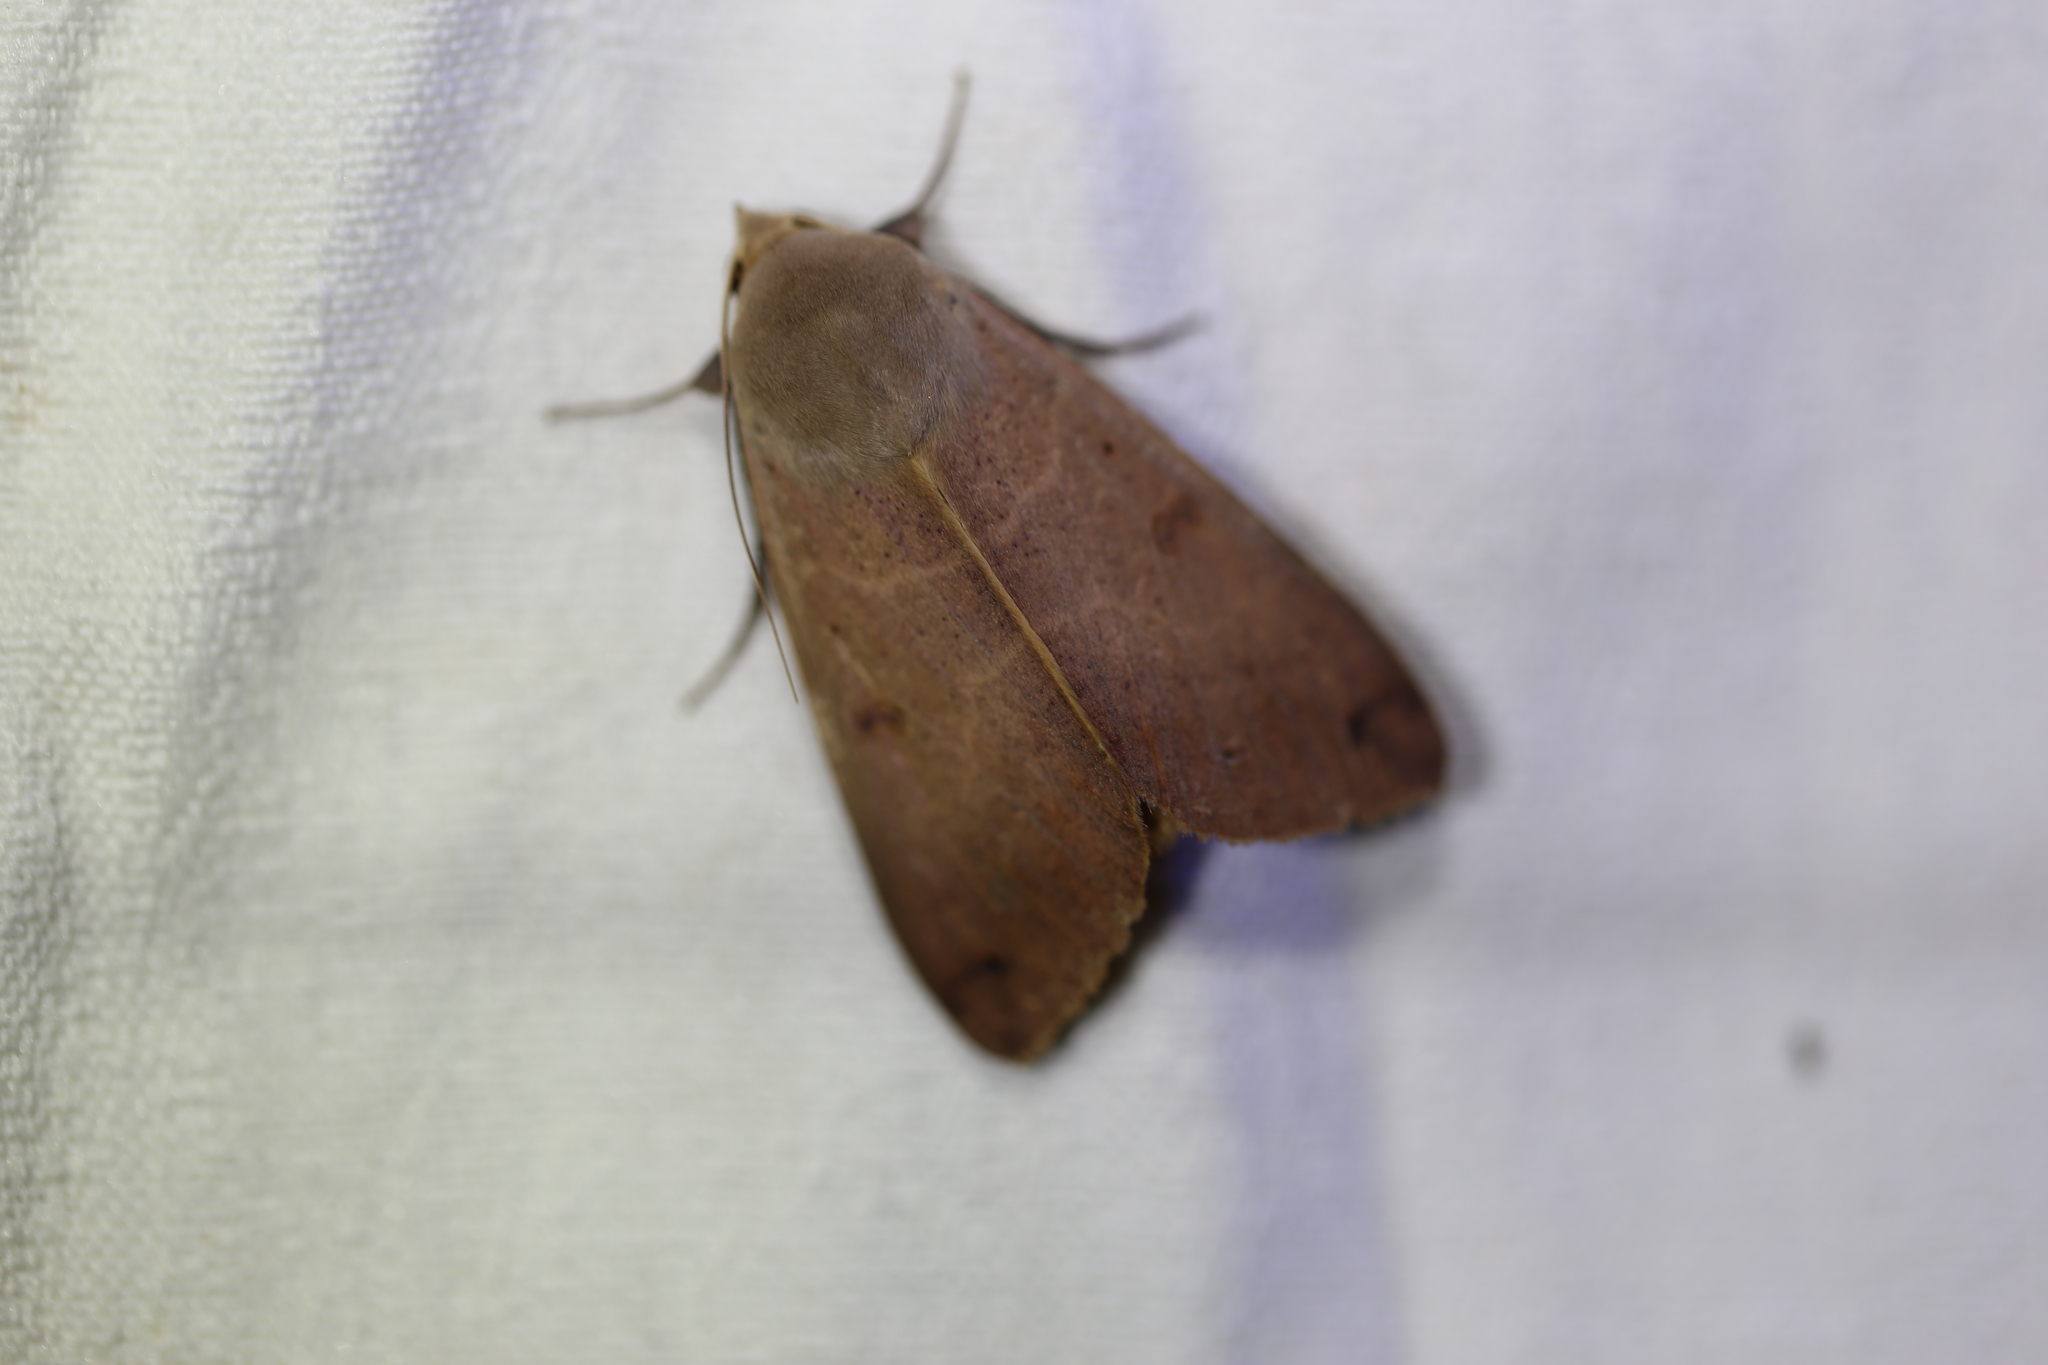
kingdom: Animalia
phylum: Arthropoda
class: Insecta
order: Lepidoptera
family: Erebidae
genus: Ophiusa
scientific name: Ophiusa disjungens
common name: Moth
